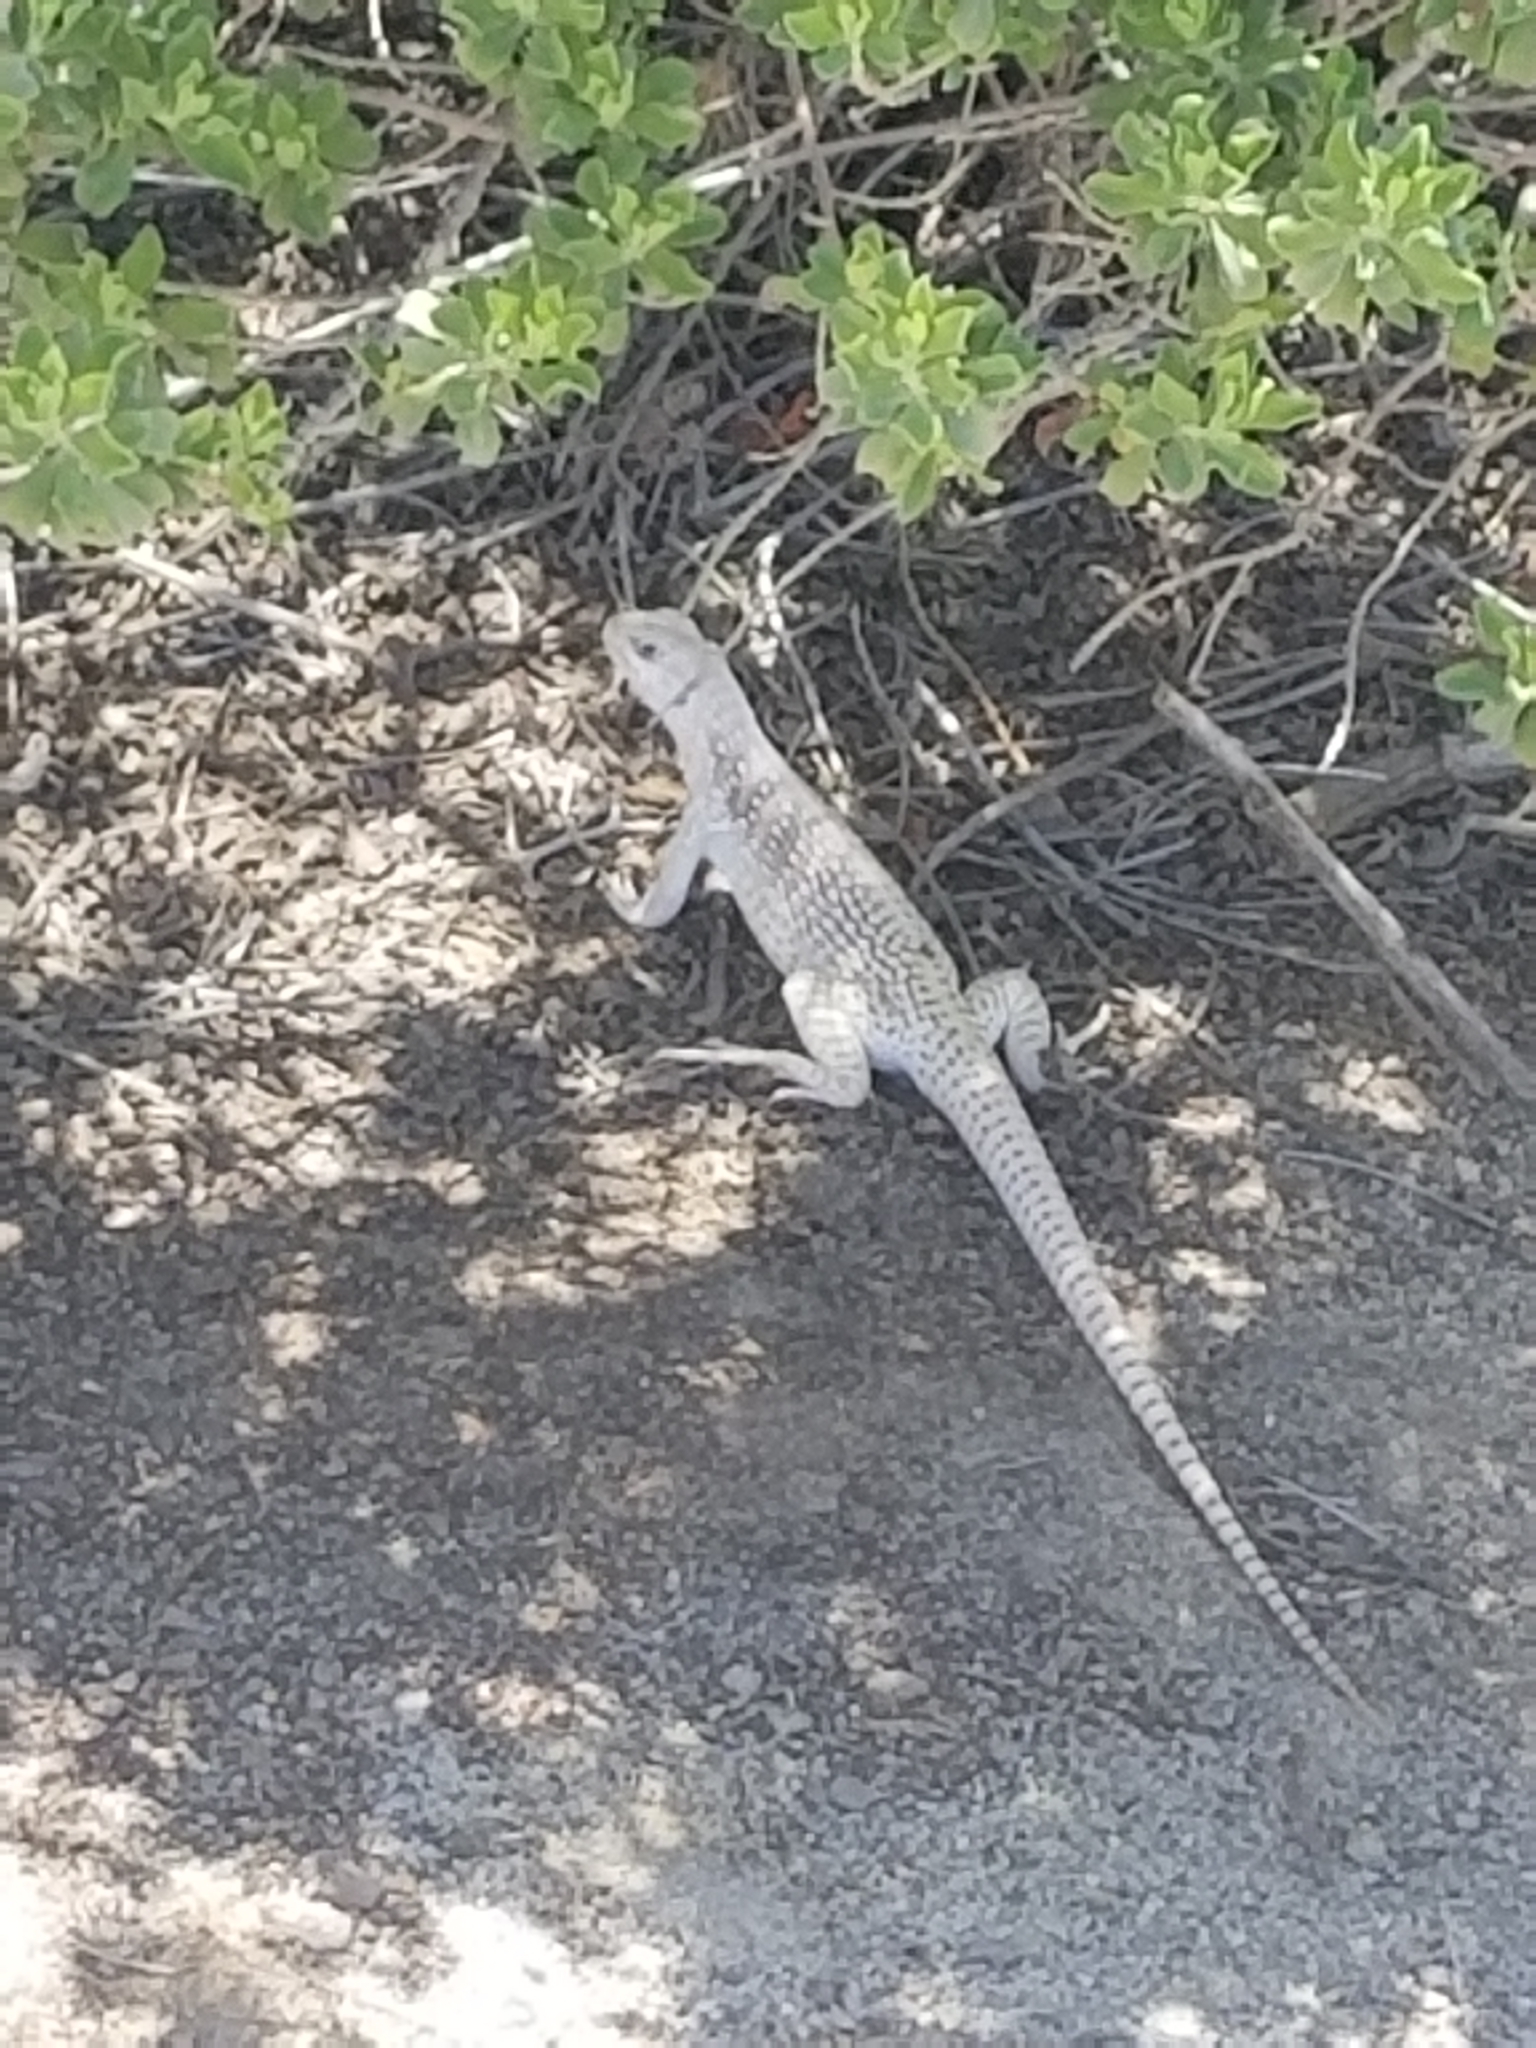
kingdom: Animalia
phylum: Chordata
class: Squamata
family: Iguanidae
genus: Dipsosaurus
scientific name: Dipsosaurus dorsalis
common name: Desert iguana
